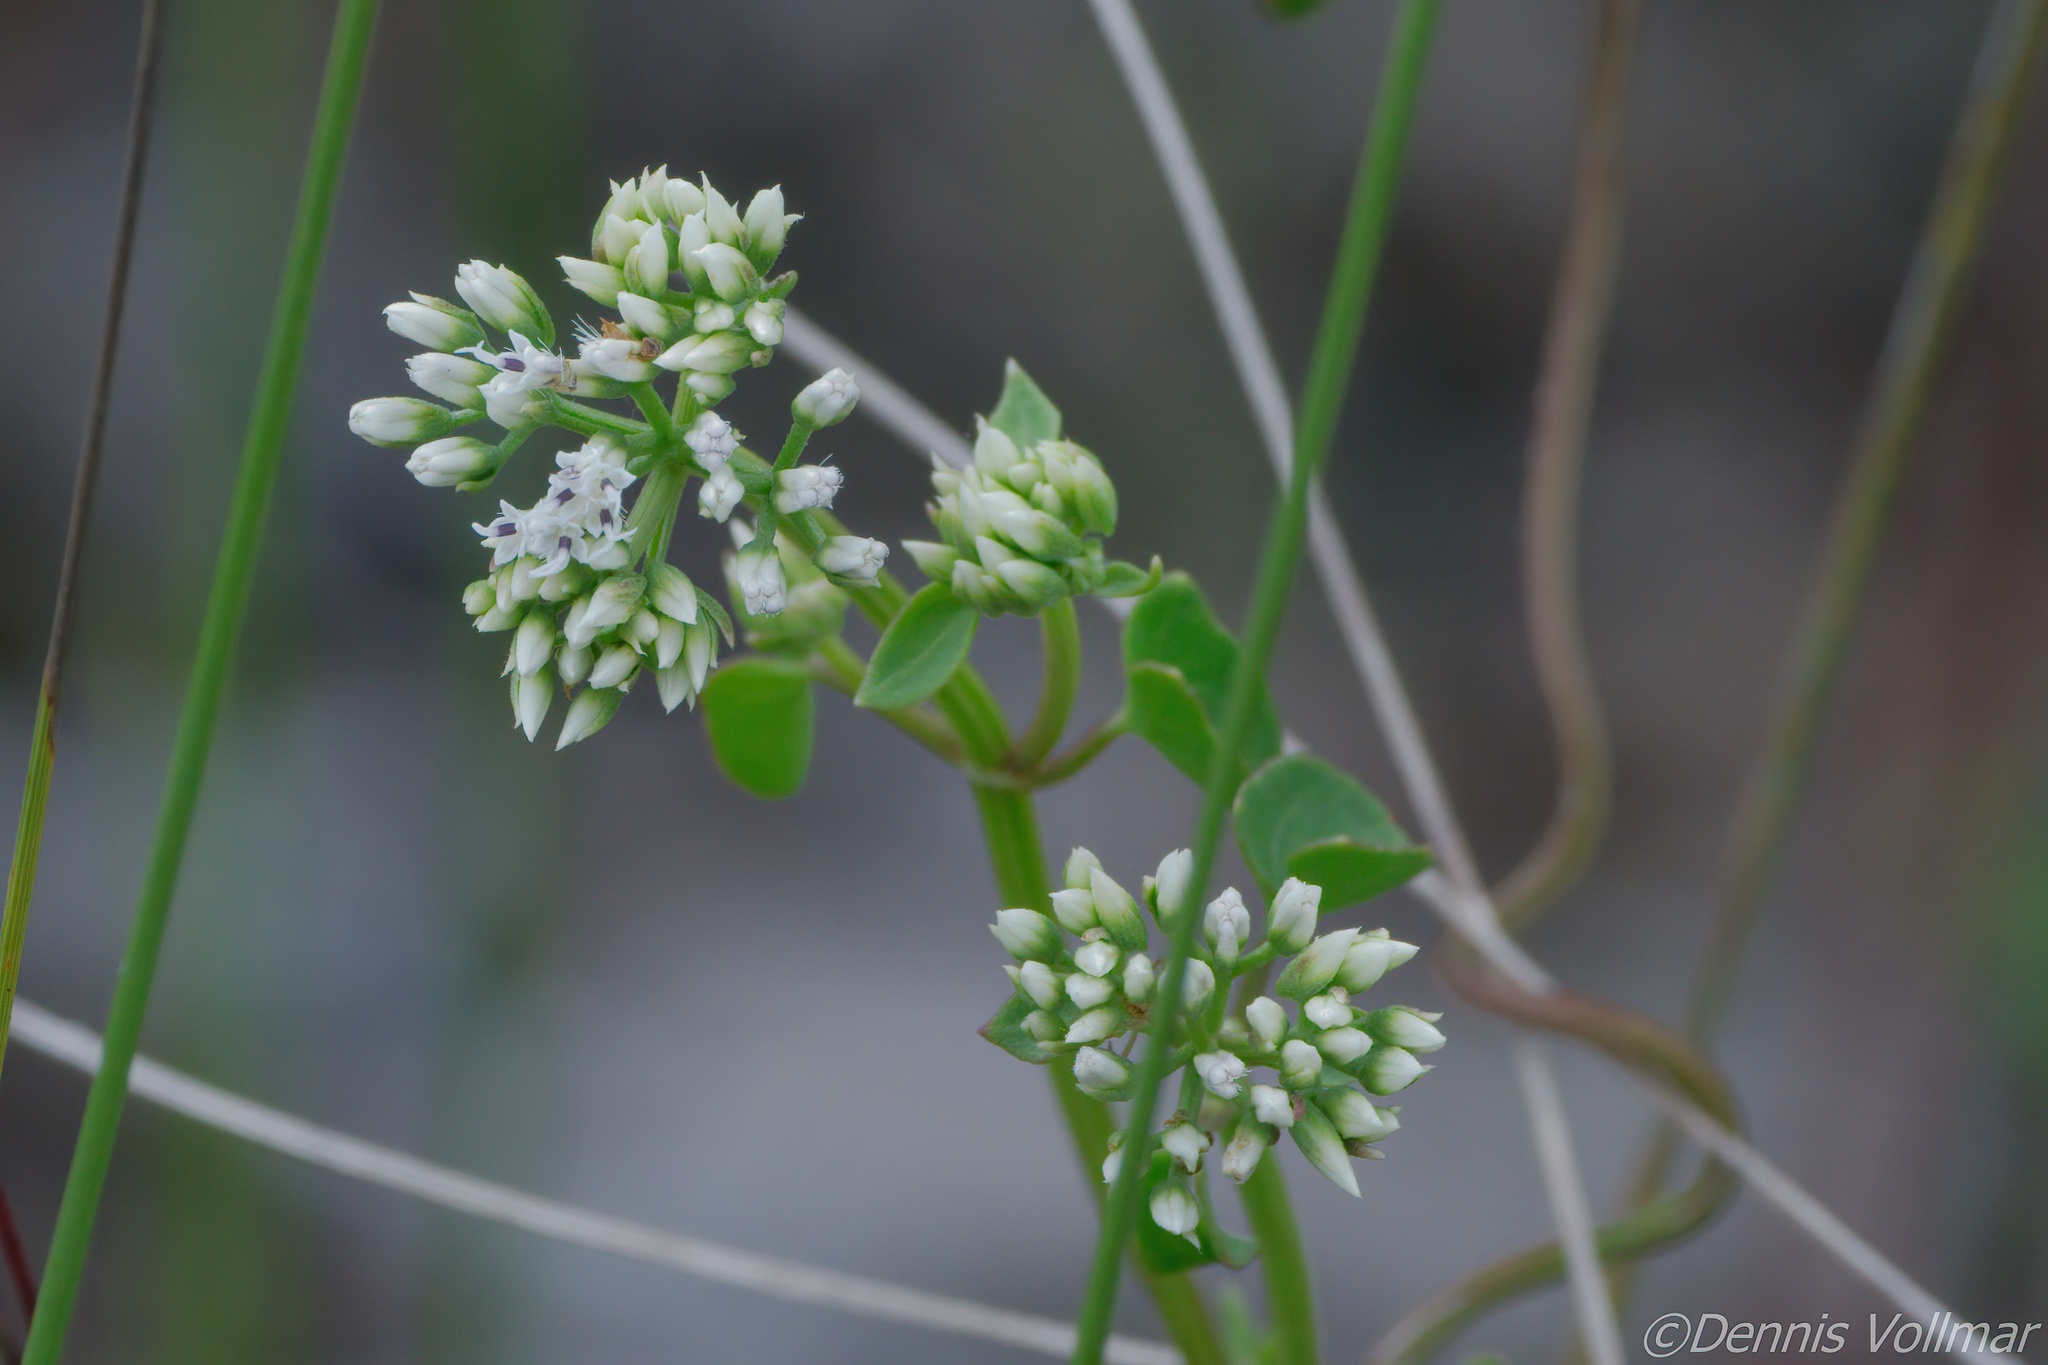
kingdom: Plantae
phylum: Tracheophyta
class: Magnoliopsida
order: Asterales
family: Asteraceae
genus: Mikania
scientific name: Mikania scandens
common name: Climbing hempvine
